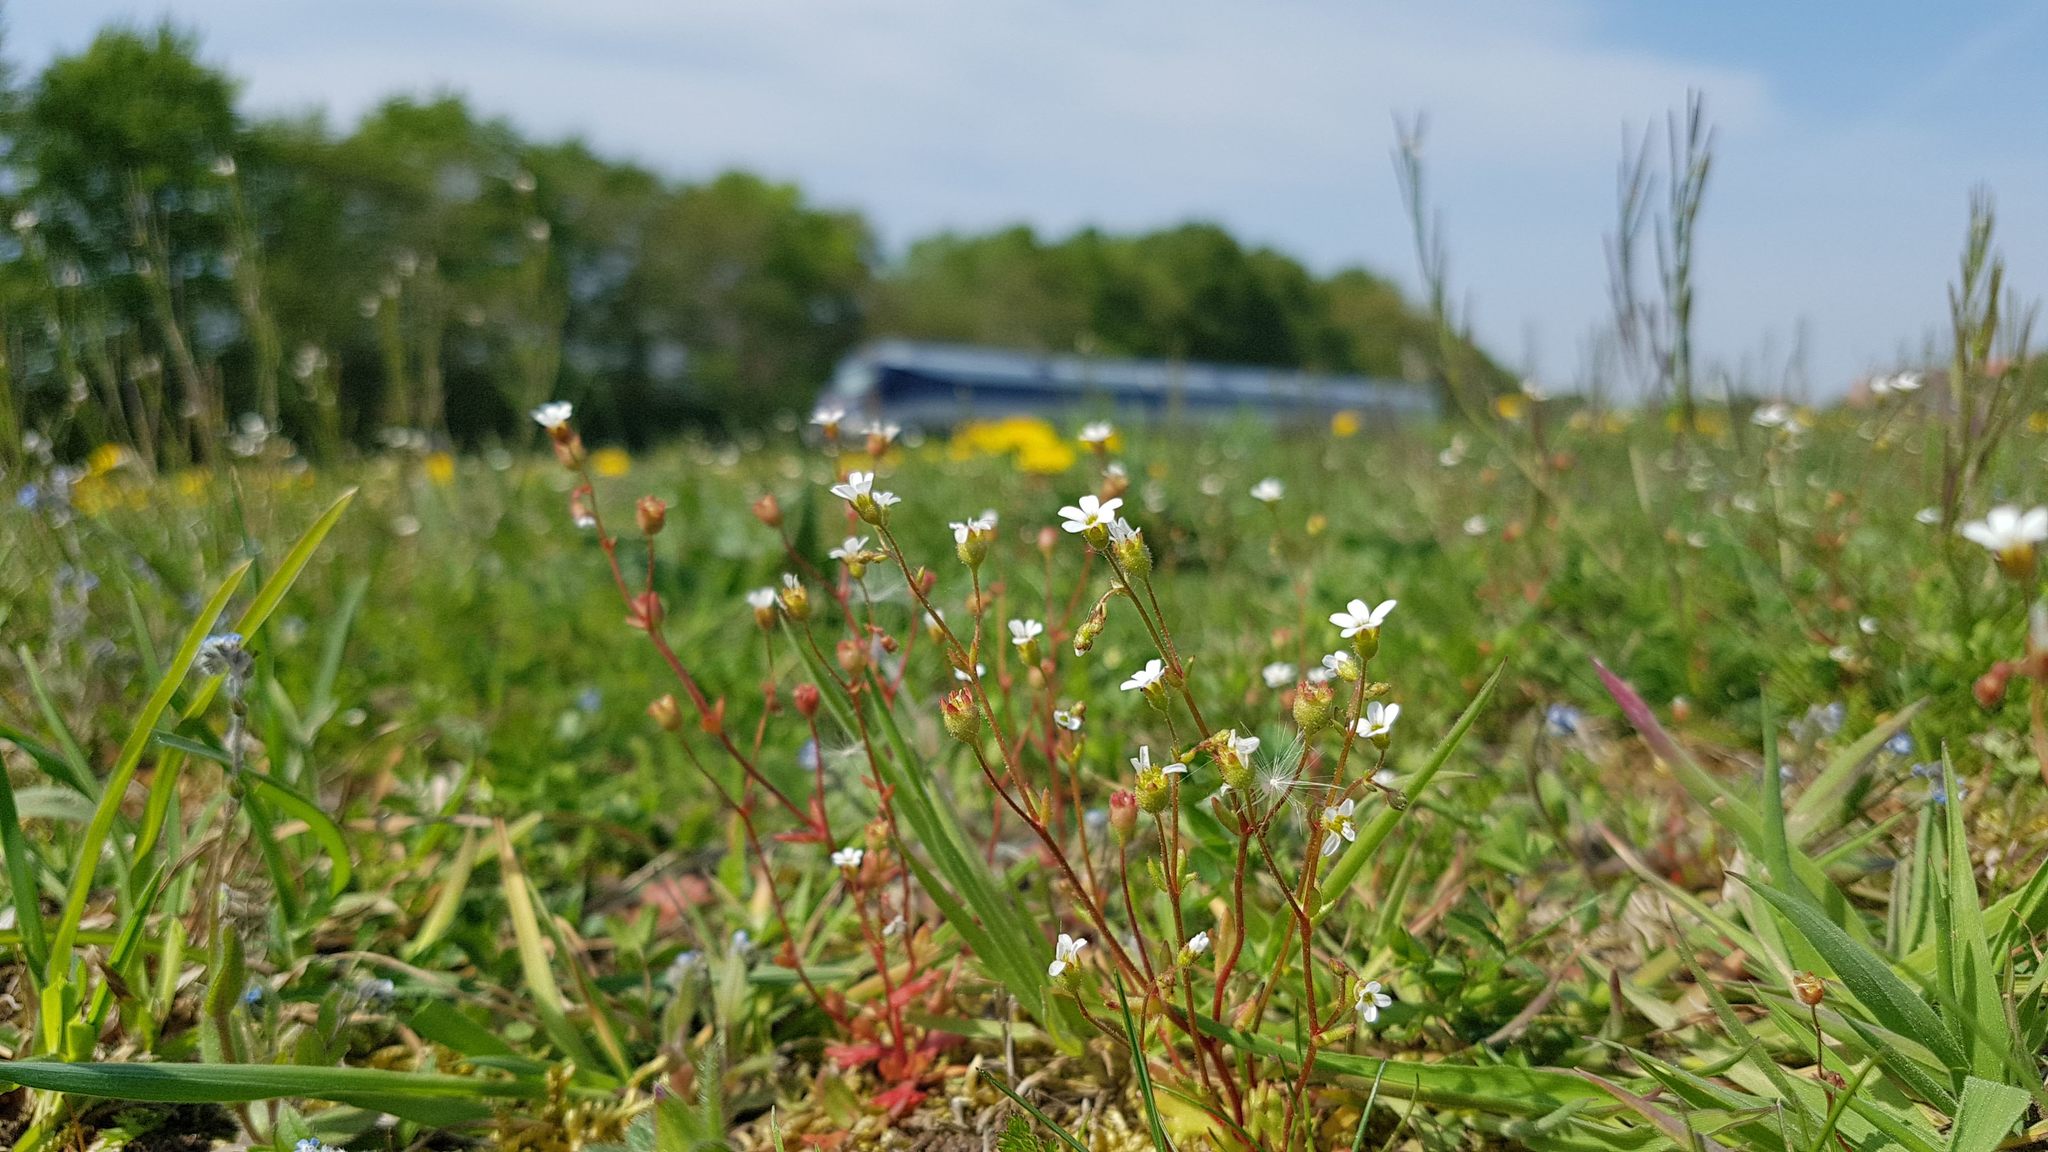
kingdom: Plantae
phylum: Tracheophyta
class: Magnoliopsida
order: Saxifragales
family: Saxifragaceae
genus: Saxifraga
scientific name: Saxifraga tridactylites
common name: Rue-leaved saxifrage
